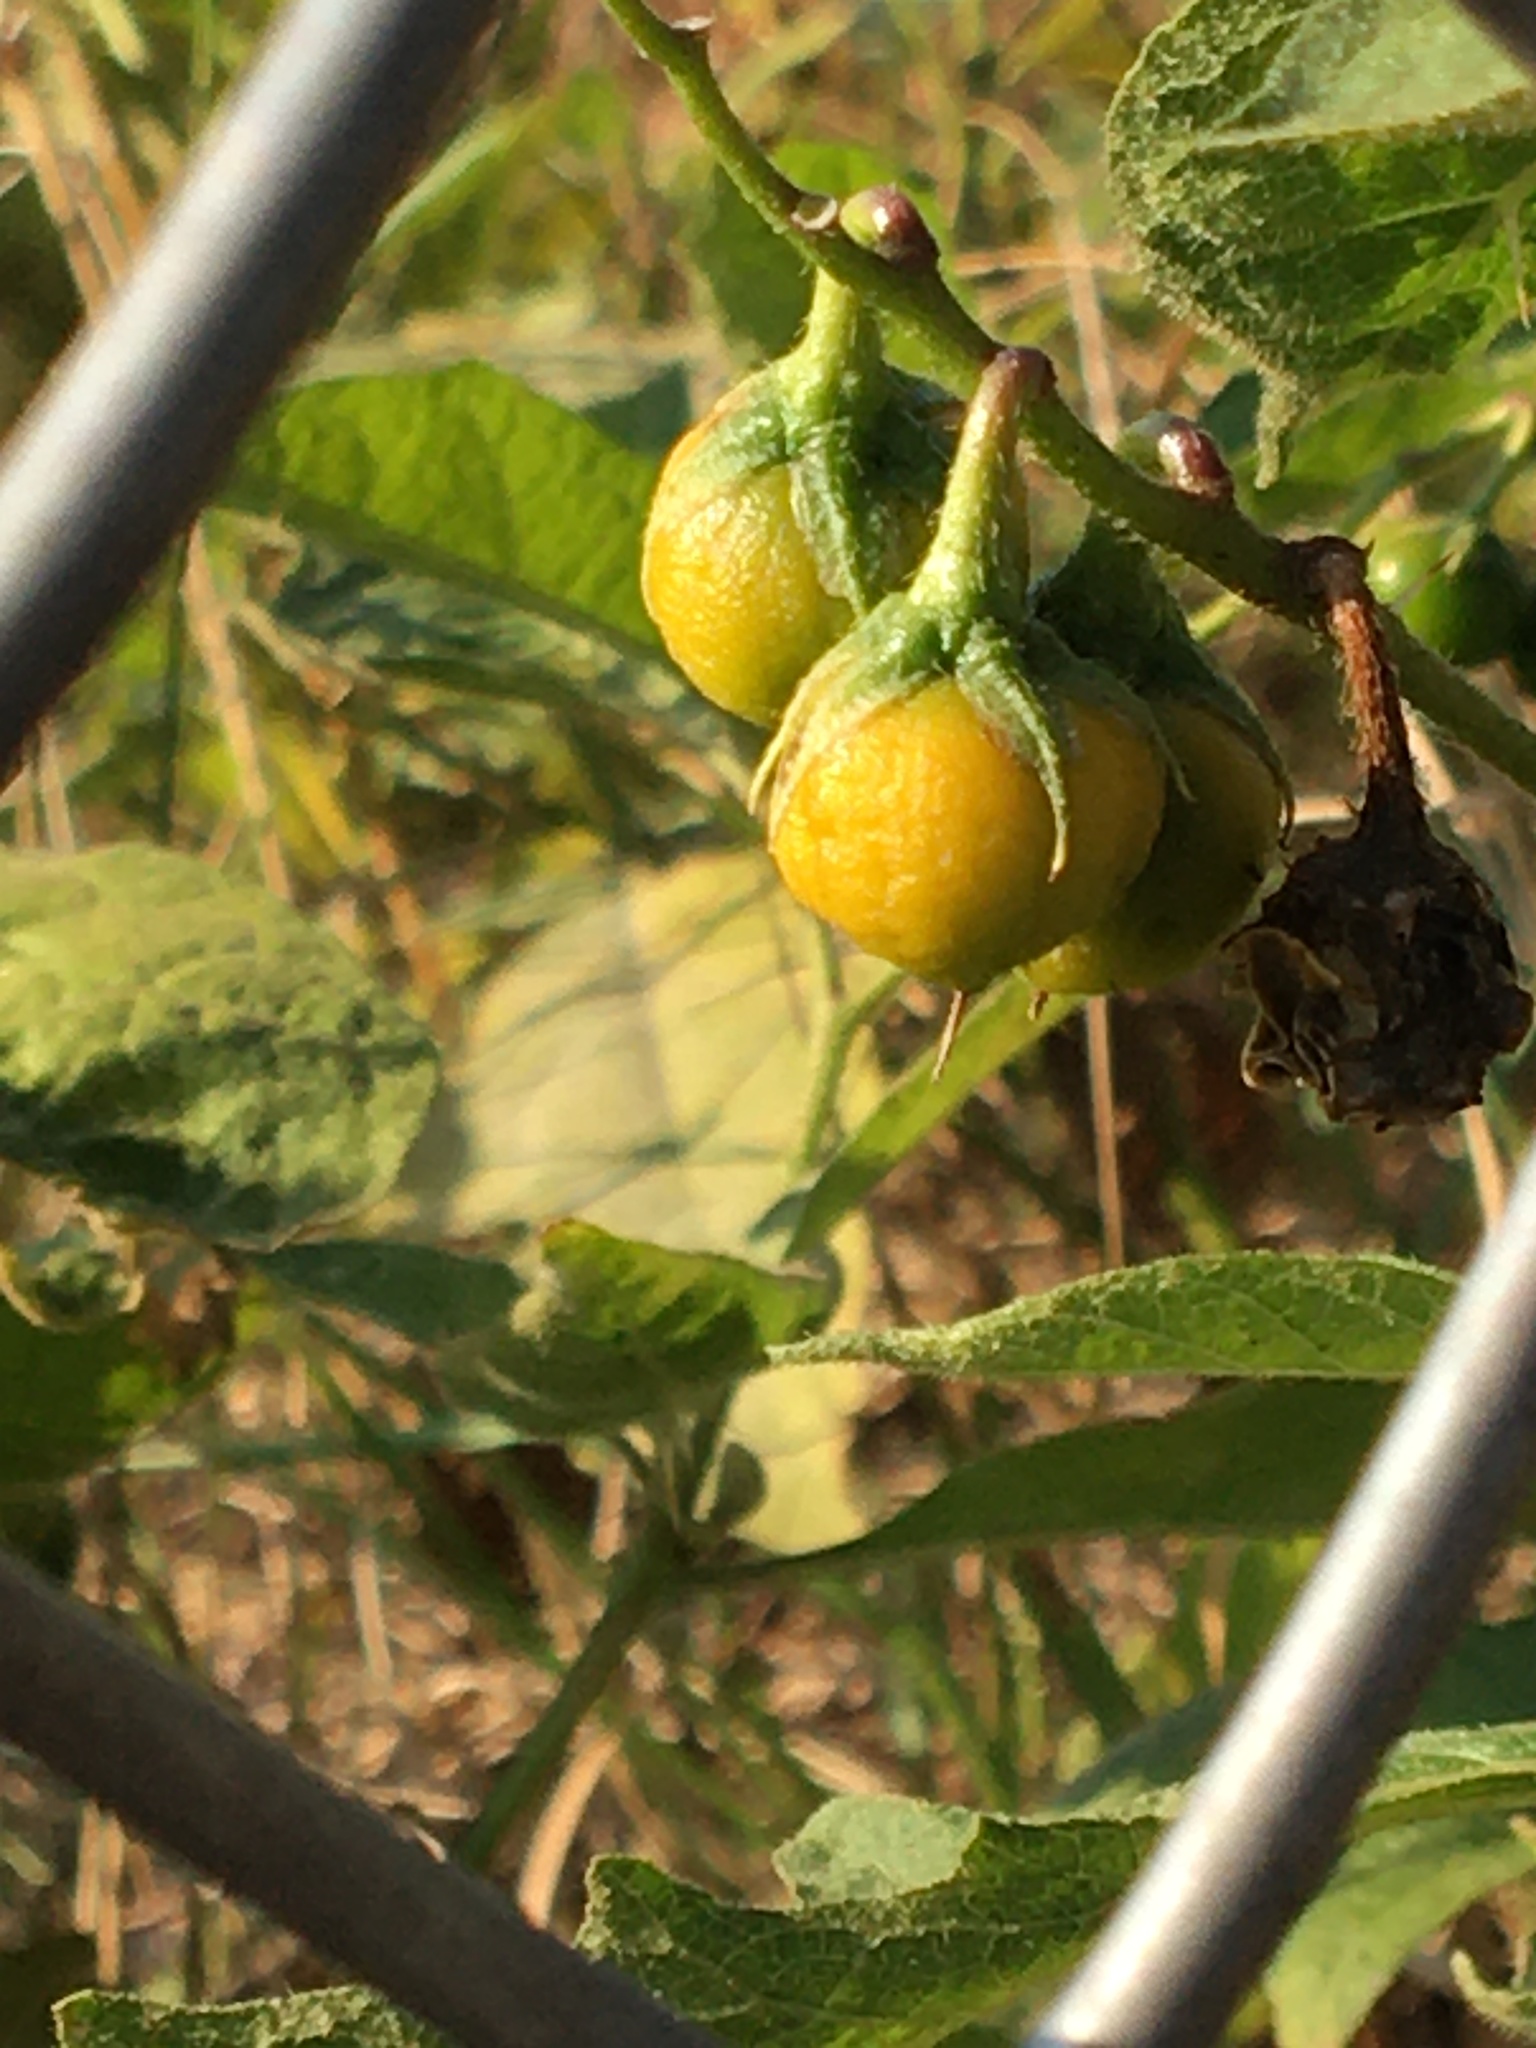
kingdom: Plantae
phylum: Tracheophyta
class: Magnoliopsida
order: Solanales
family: Solanaceae
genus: Solanum
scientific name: Solanum carolinense
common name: Horse-nettle
